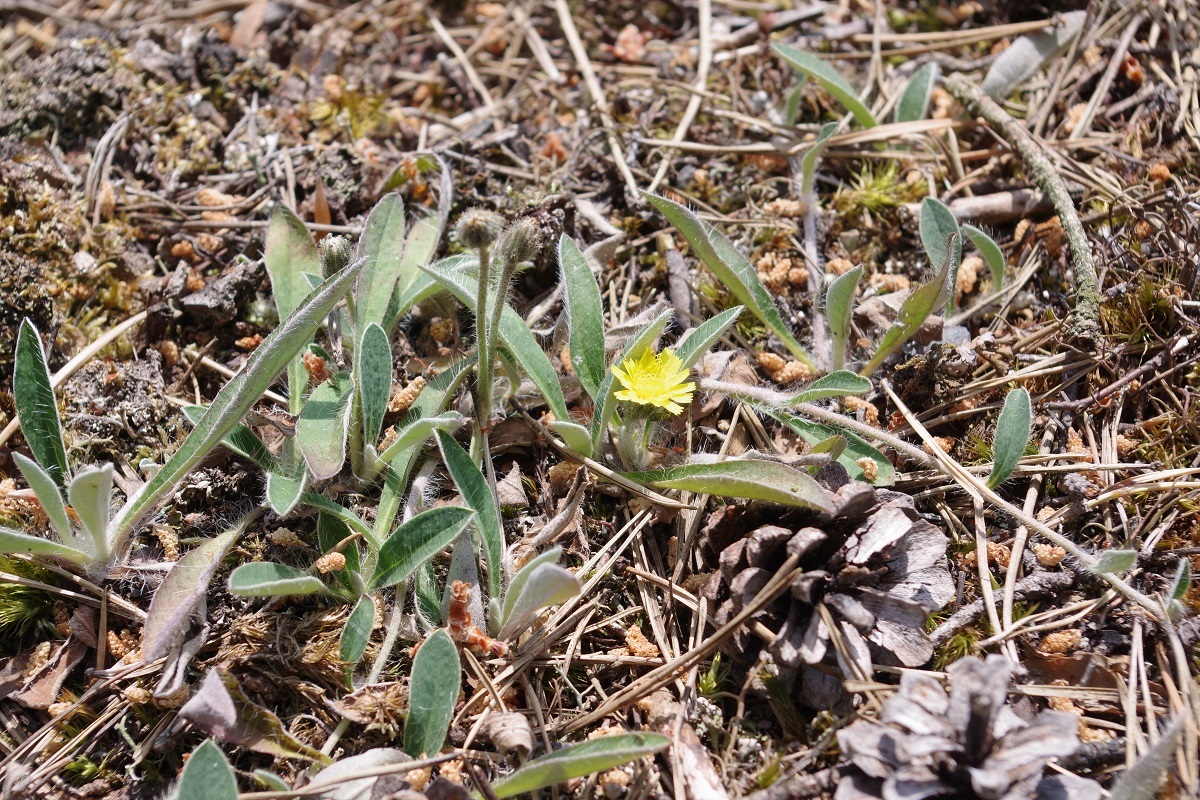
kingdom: Plantae
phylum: Tracheophyta
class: Magnoliopsida
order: Asterales
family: Asteraceae
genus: Pilosella
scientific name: Pilosella officinarum
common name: Mouse-ear hawkweed
